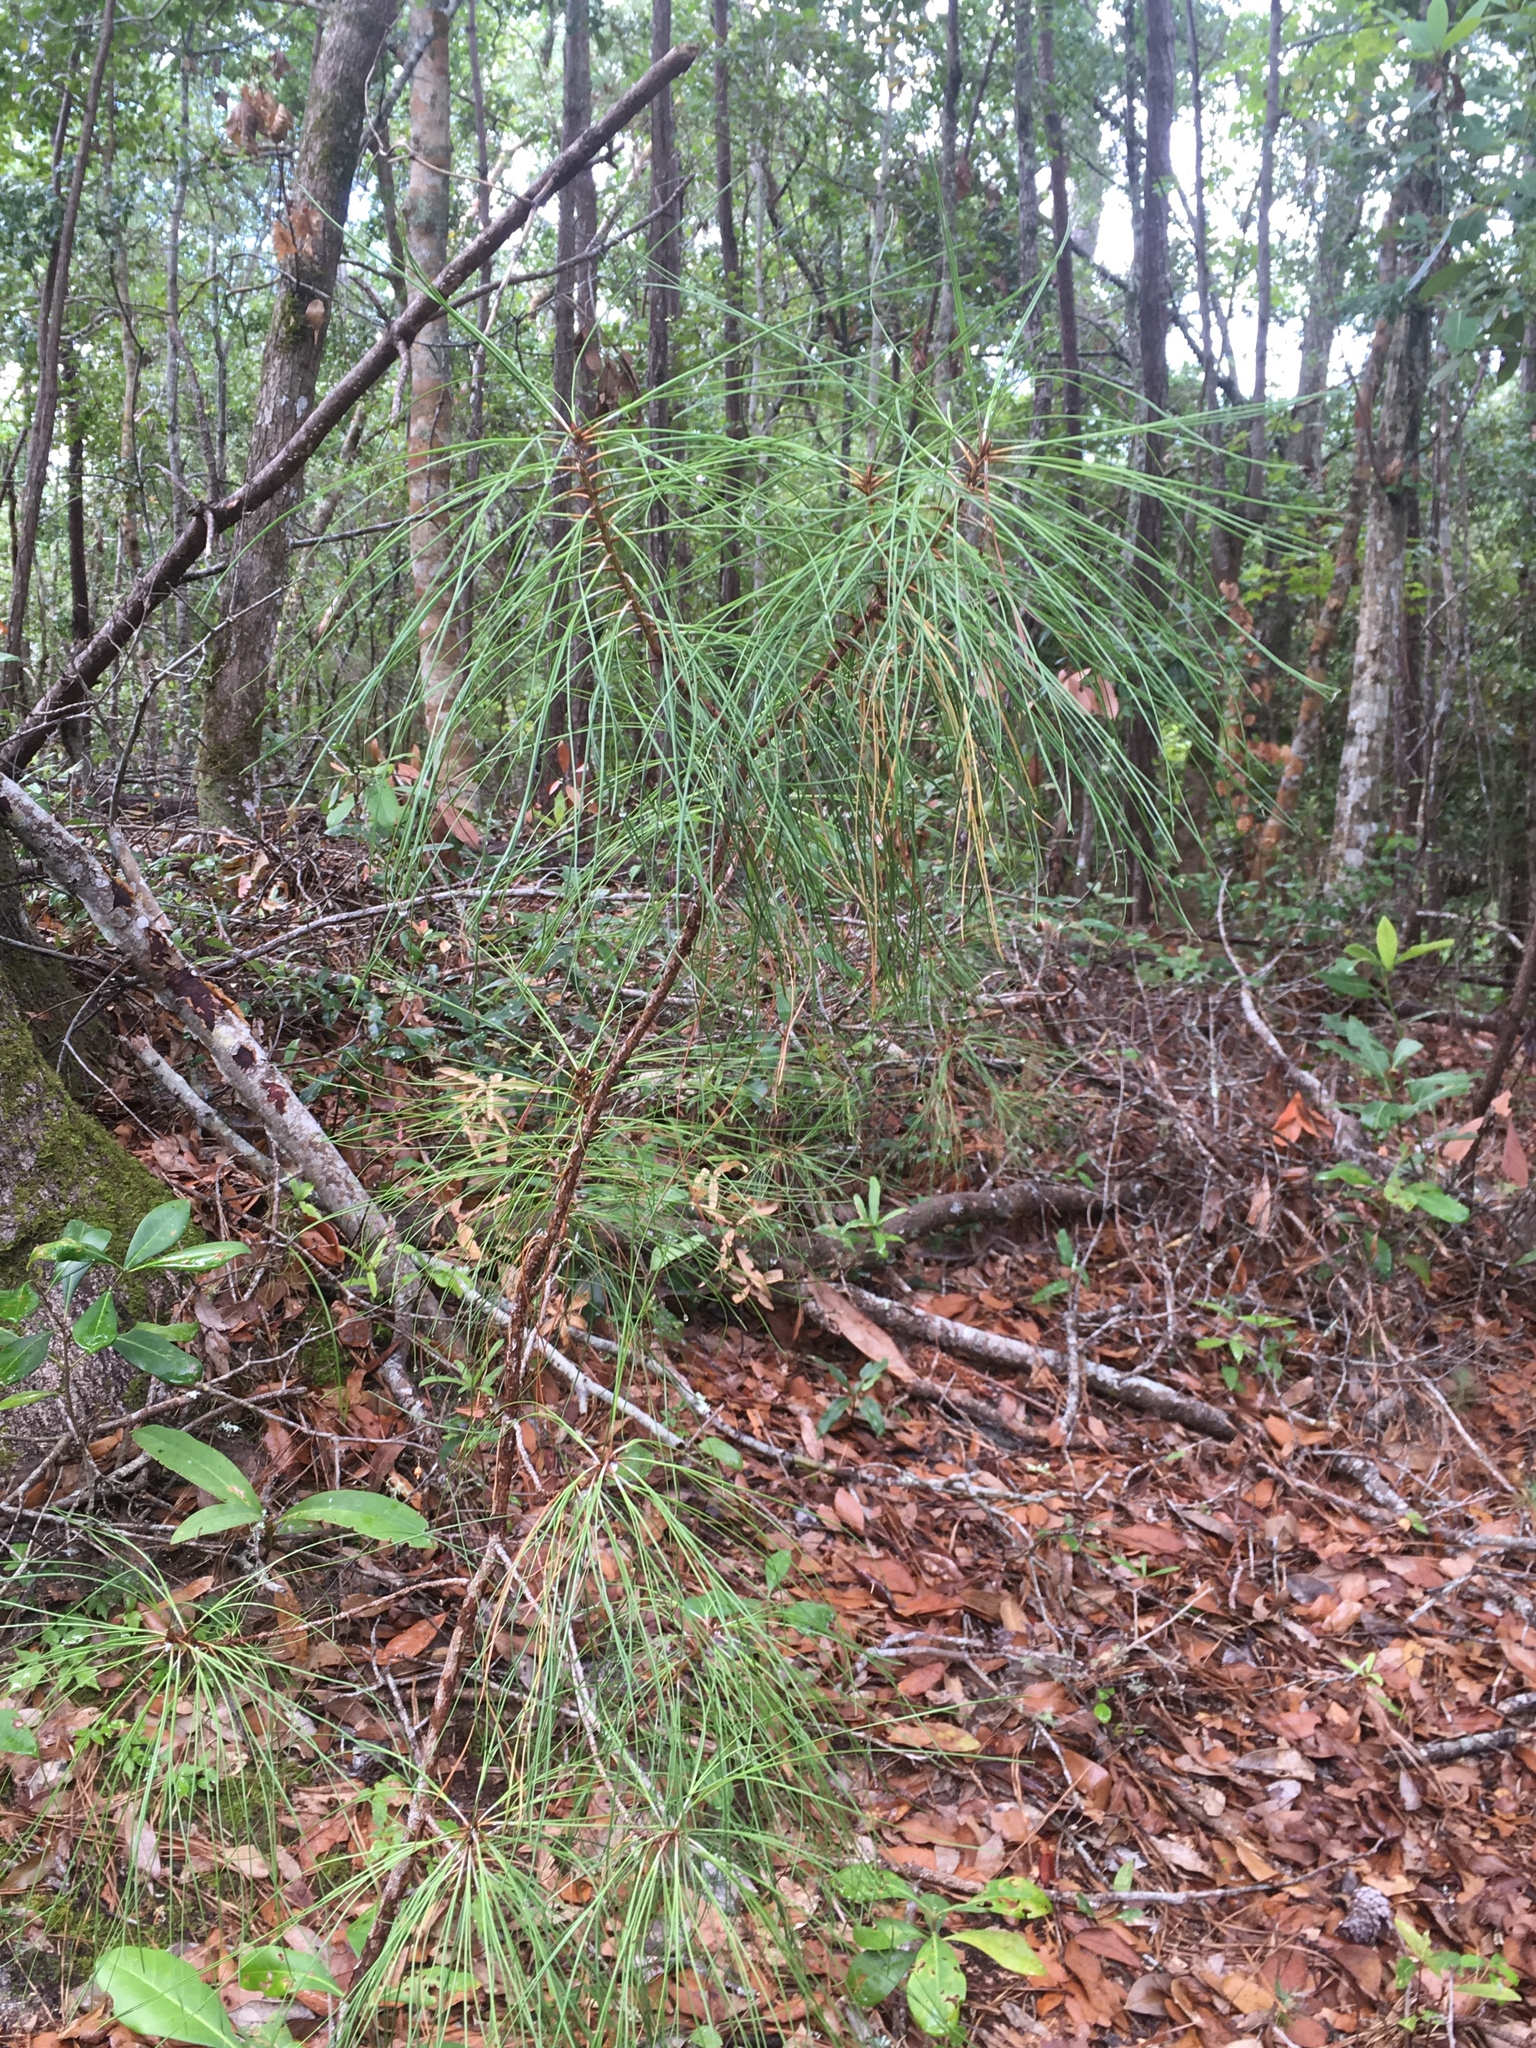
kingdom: Plantae
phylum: Tracheophyta
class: Pinopsida
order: Pinales
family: Pinaceae
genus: Pinus
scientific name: Pinus taeda
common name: Loblolly pine
